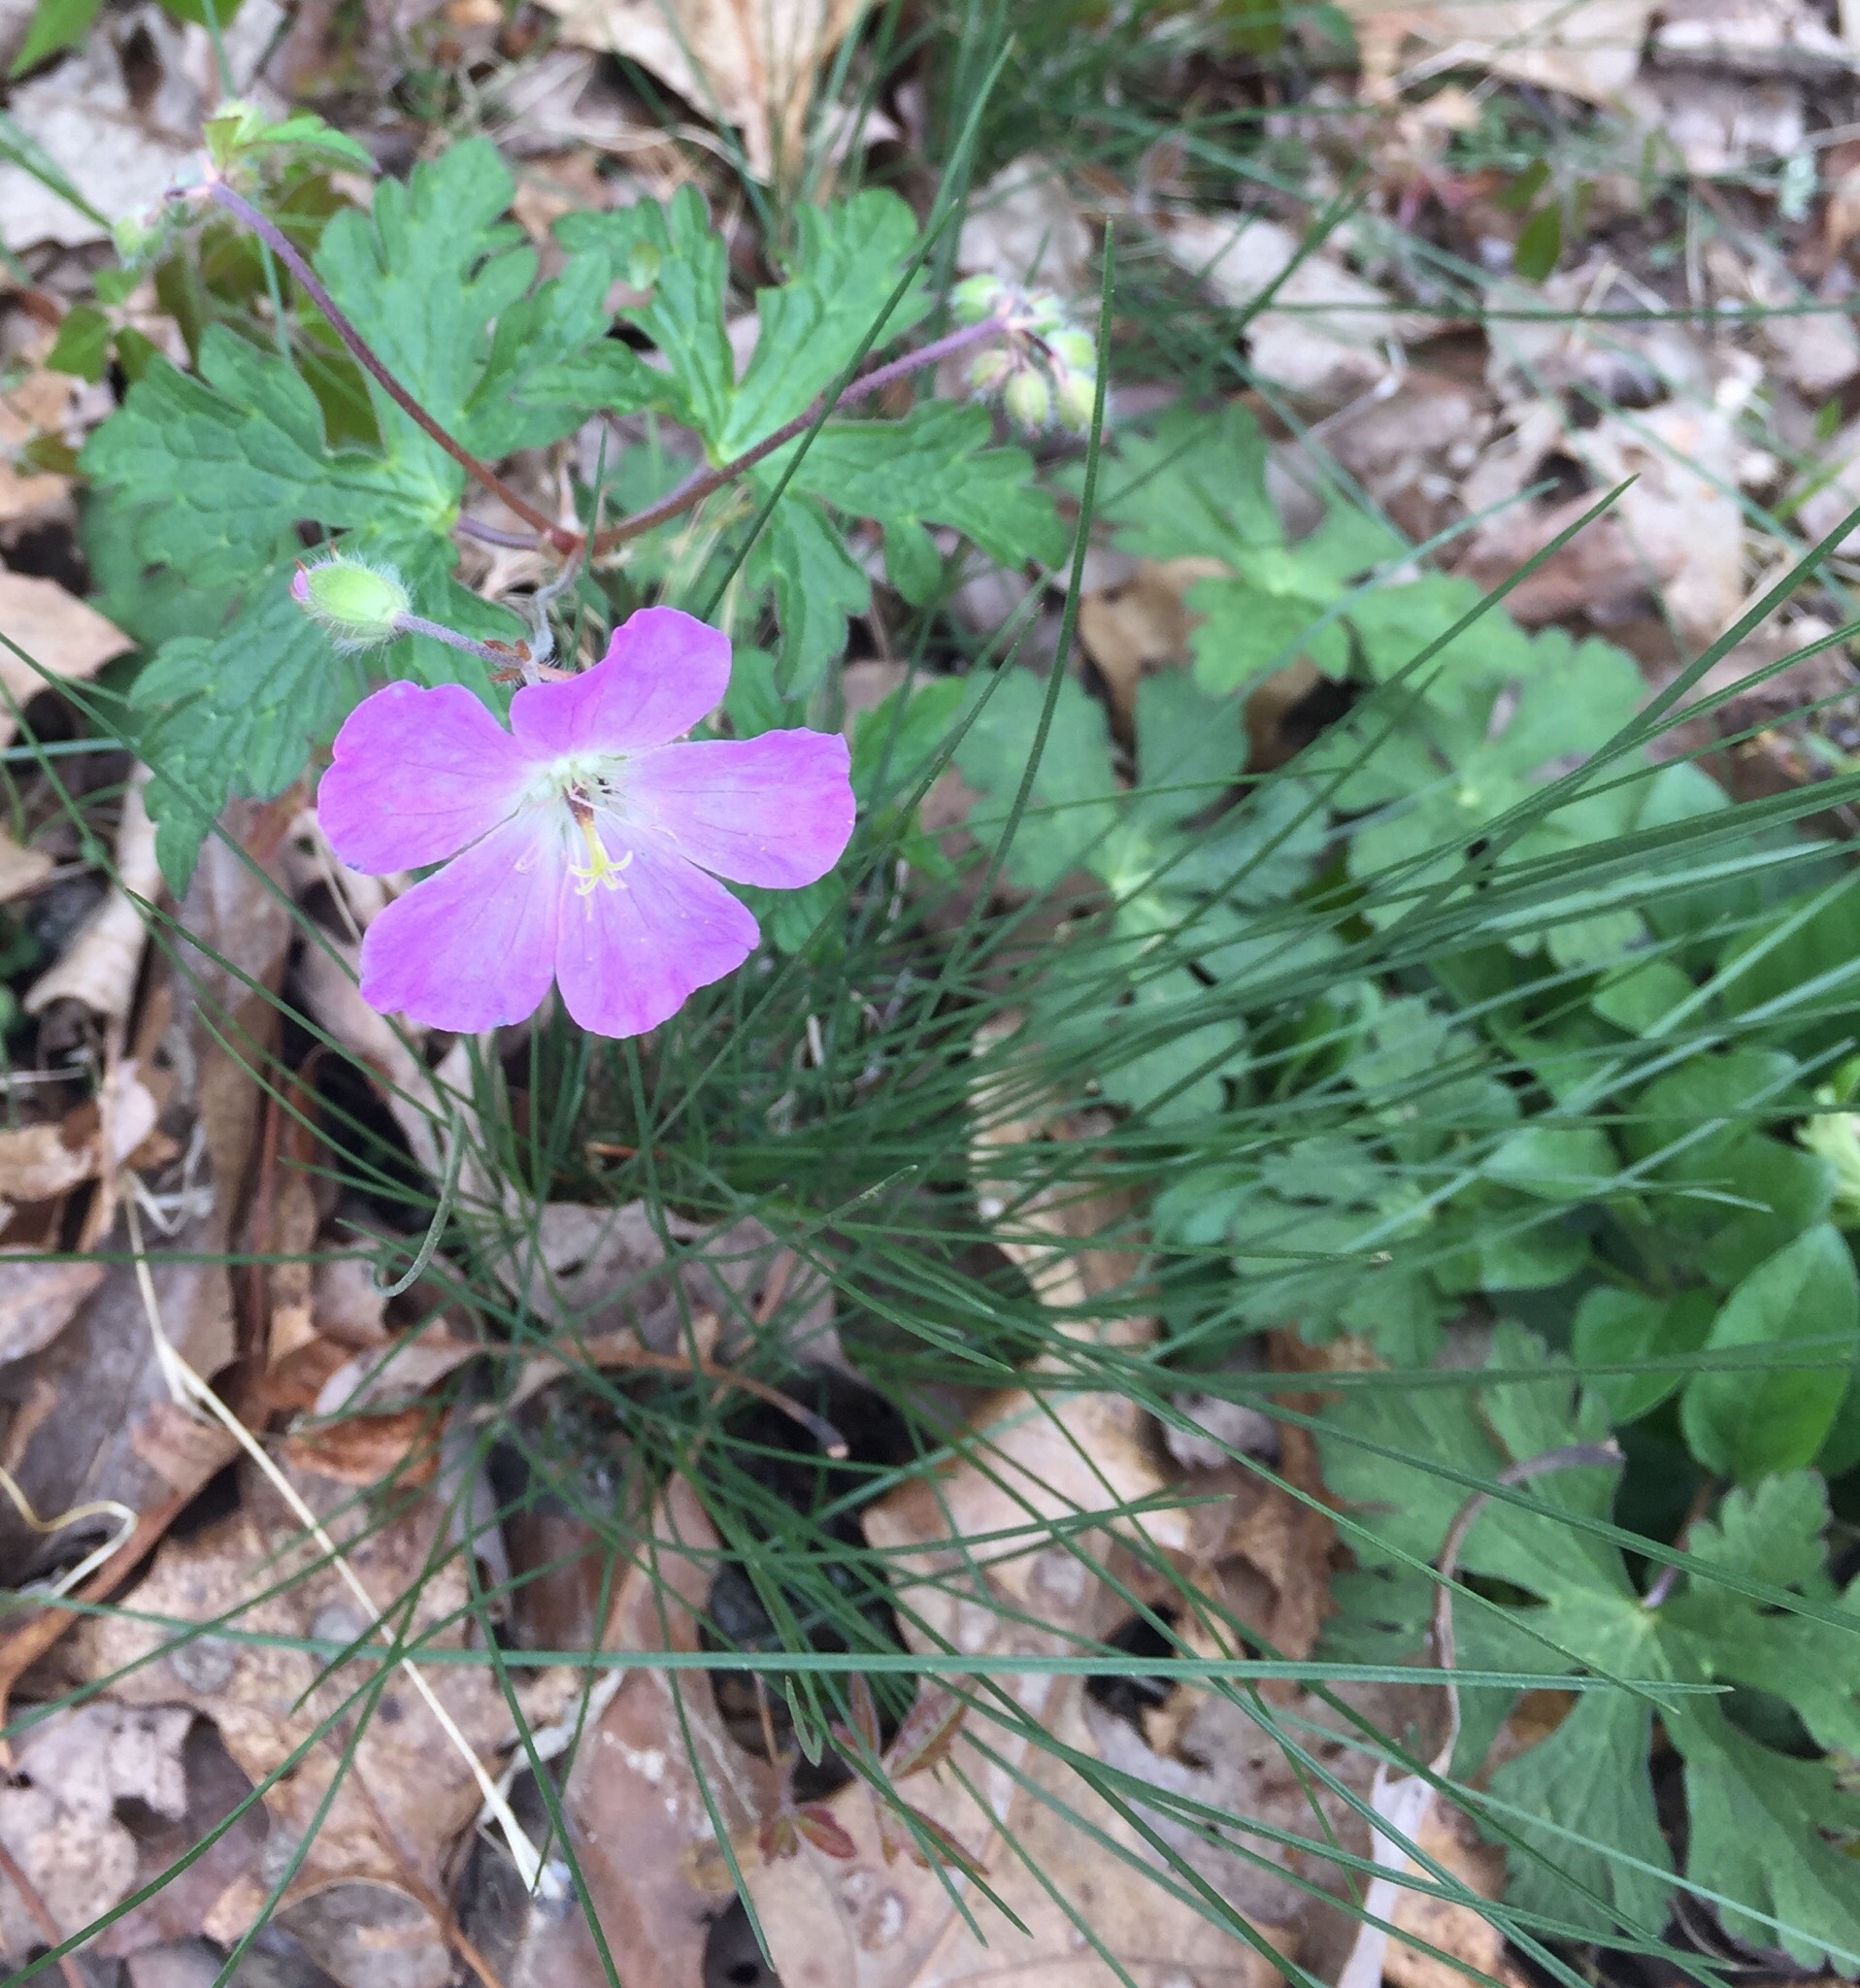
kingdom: Plantae
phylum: Tracheophyta
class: Magnoliopsida
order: Geraniales
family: Geraniaceae
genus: Geranium
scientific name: Geranium maculatum
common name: Spotted geranium
